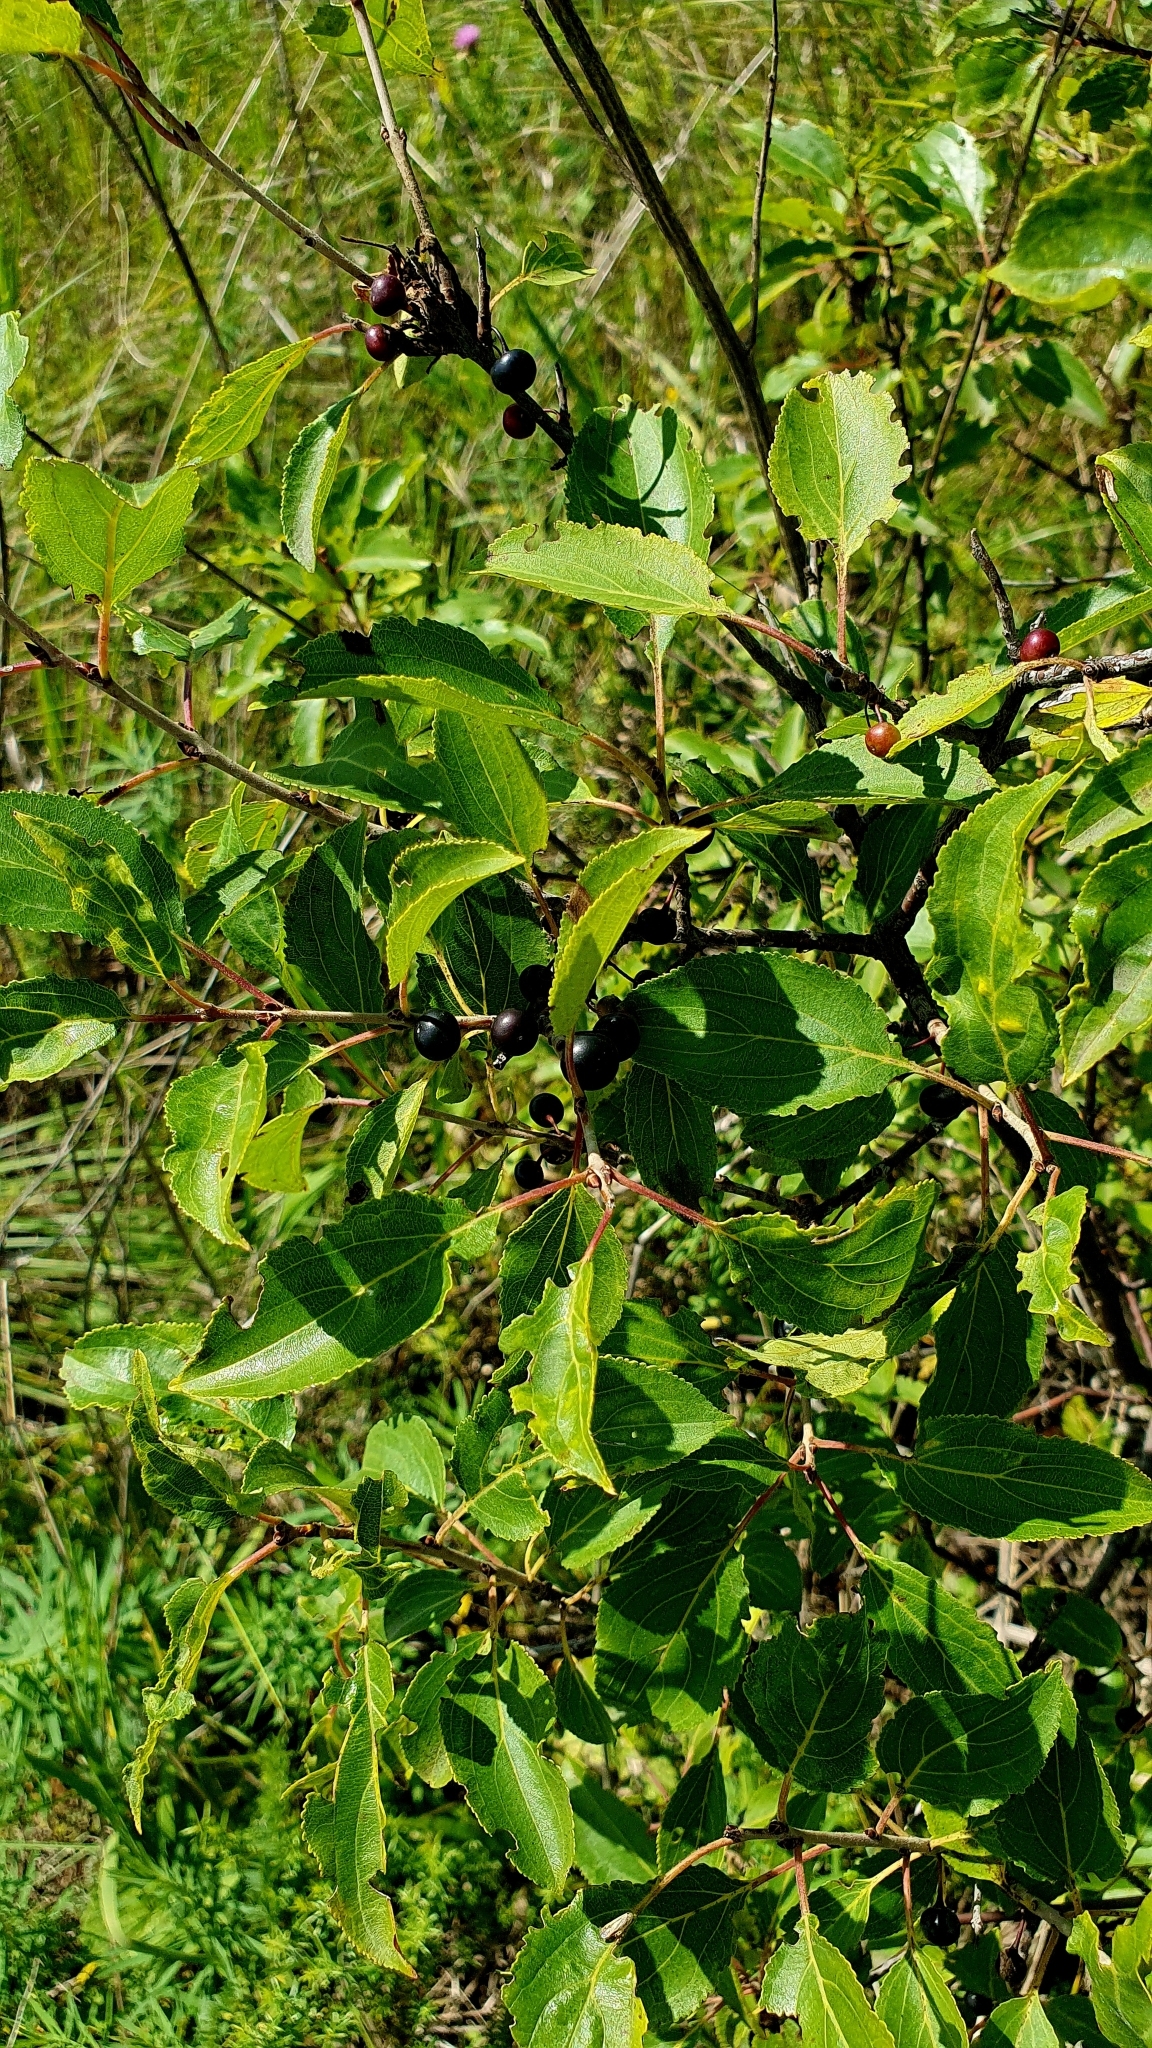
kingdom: Plantae
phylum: Tracheophyta
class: Magnoliopsida
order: Rosales
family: Rhamnaceae
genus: Rhamnus
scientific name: Rhamnus cathartica
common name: Common buckthorn
